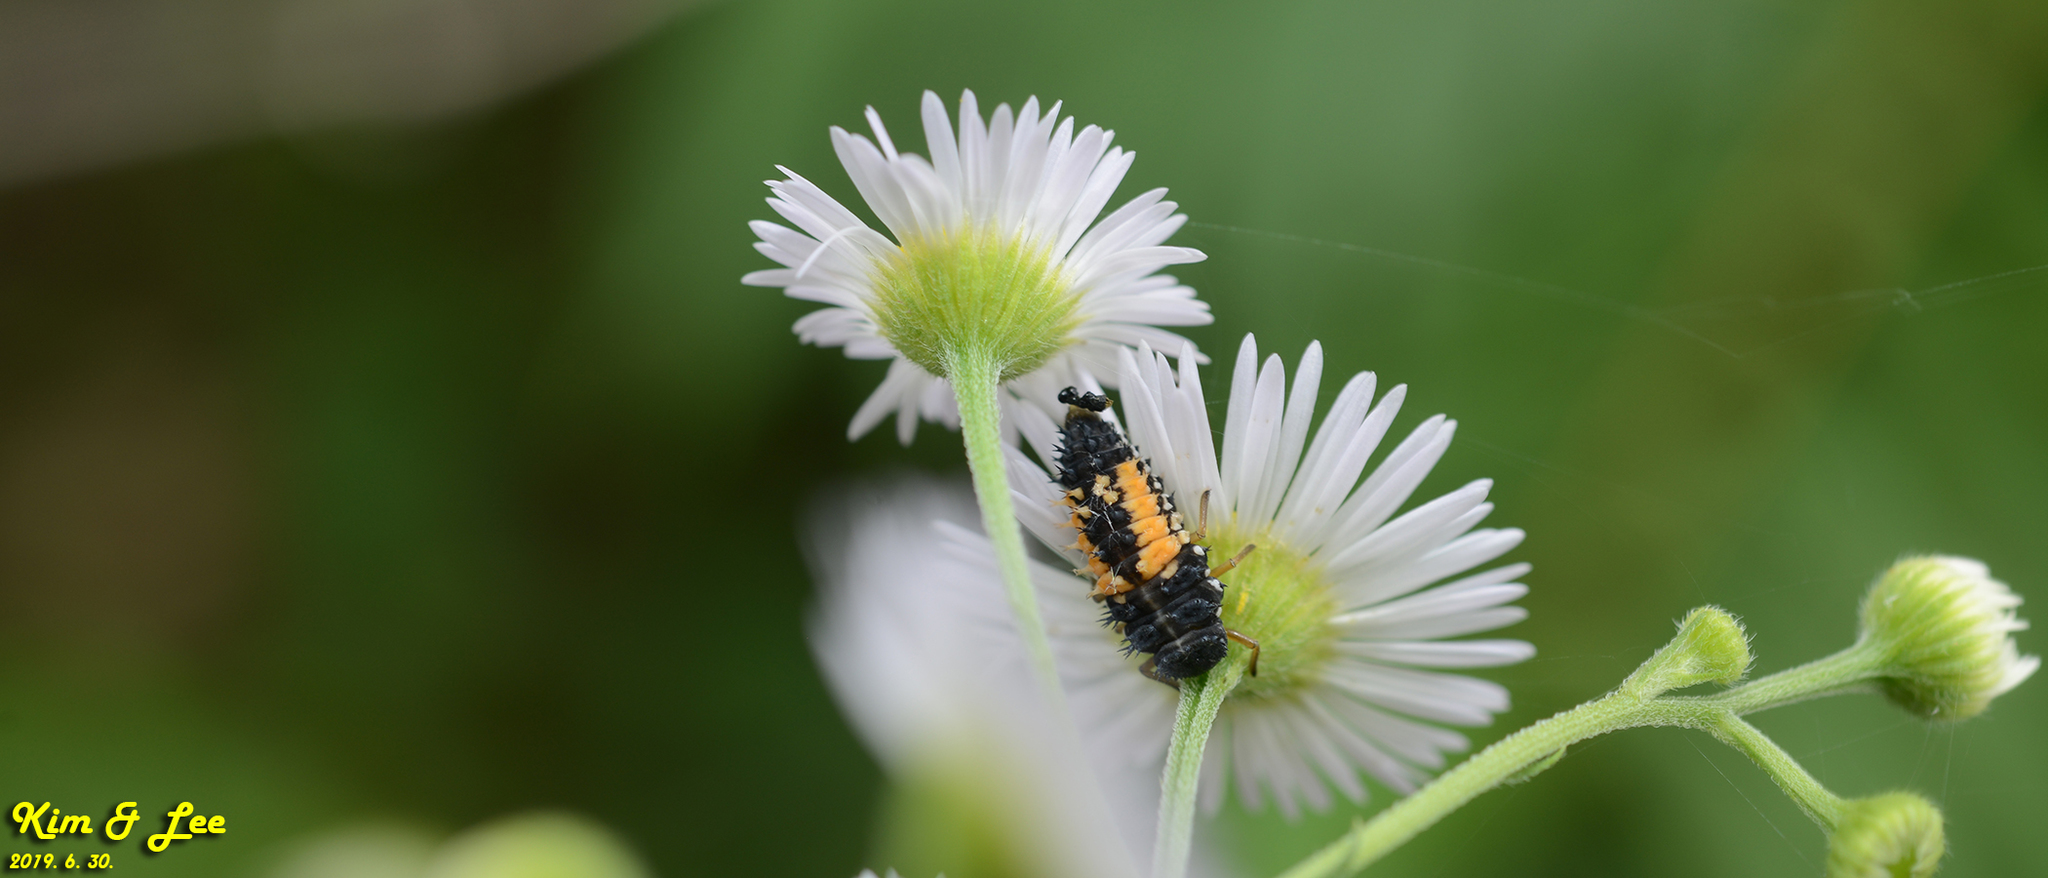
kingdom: Animalia
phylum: Arthropoda
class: Insecta
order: Coleoptera
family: Coccinellidae
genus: Harmonia
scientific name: Harmonia axyridis
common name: Harlequin ladybird
